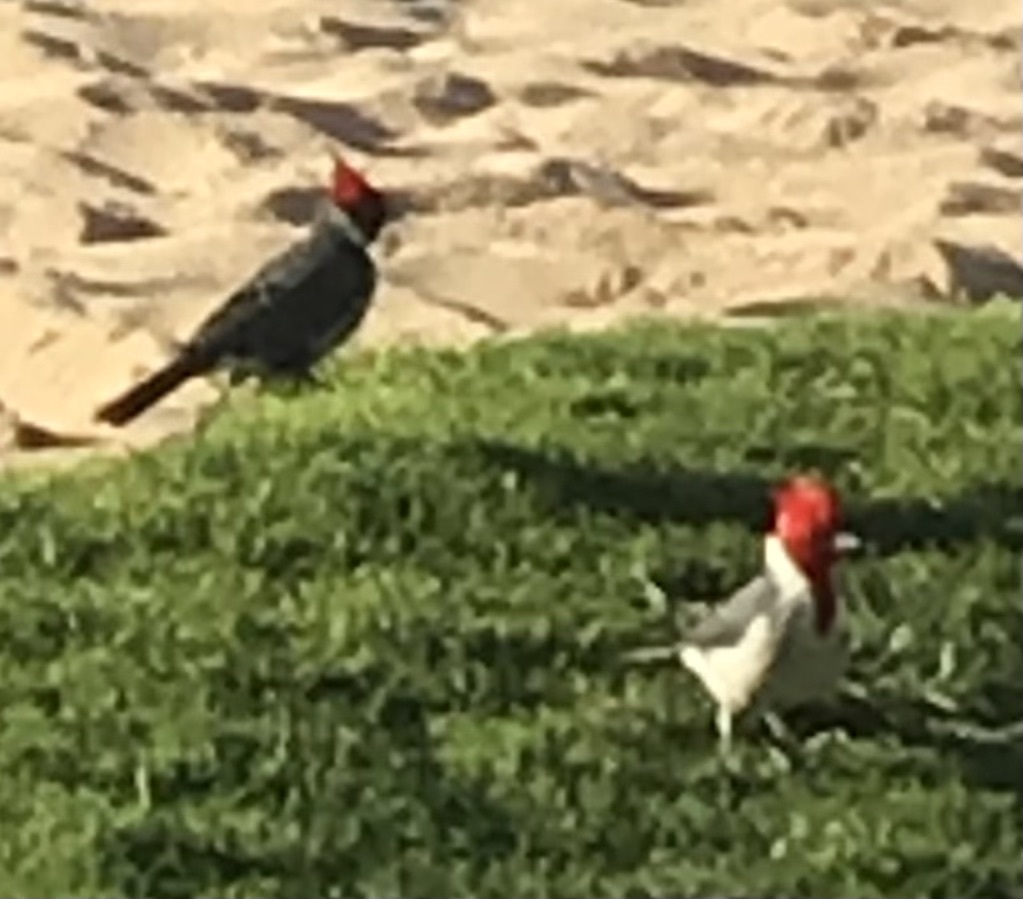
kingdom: Animalia
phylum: Chordata
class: Aves
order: Passeriformes
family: Thraupidae
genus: Paroaria
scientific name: Paroaria coronata
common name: Red-crested cardinal
